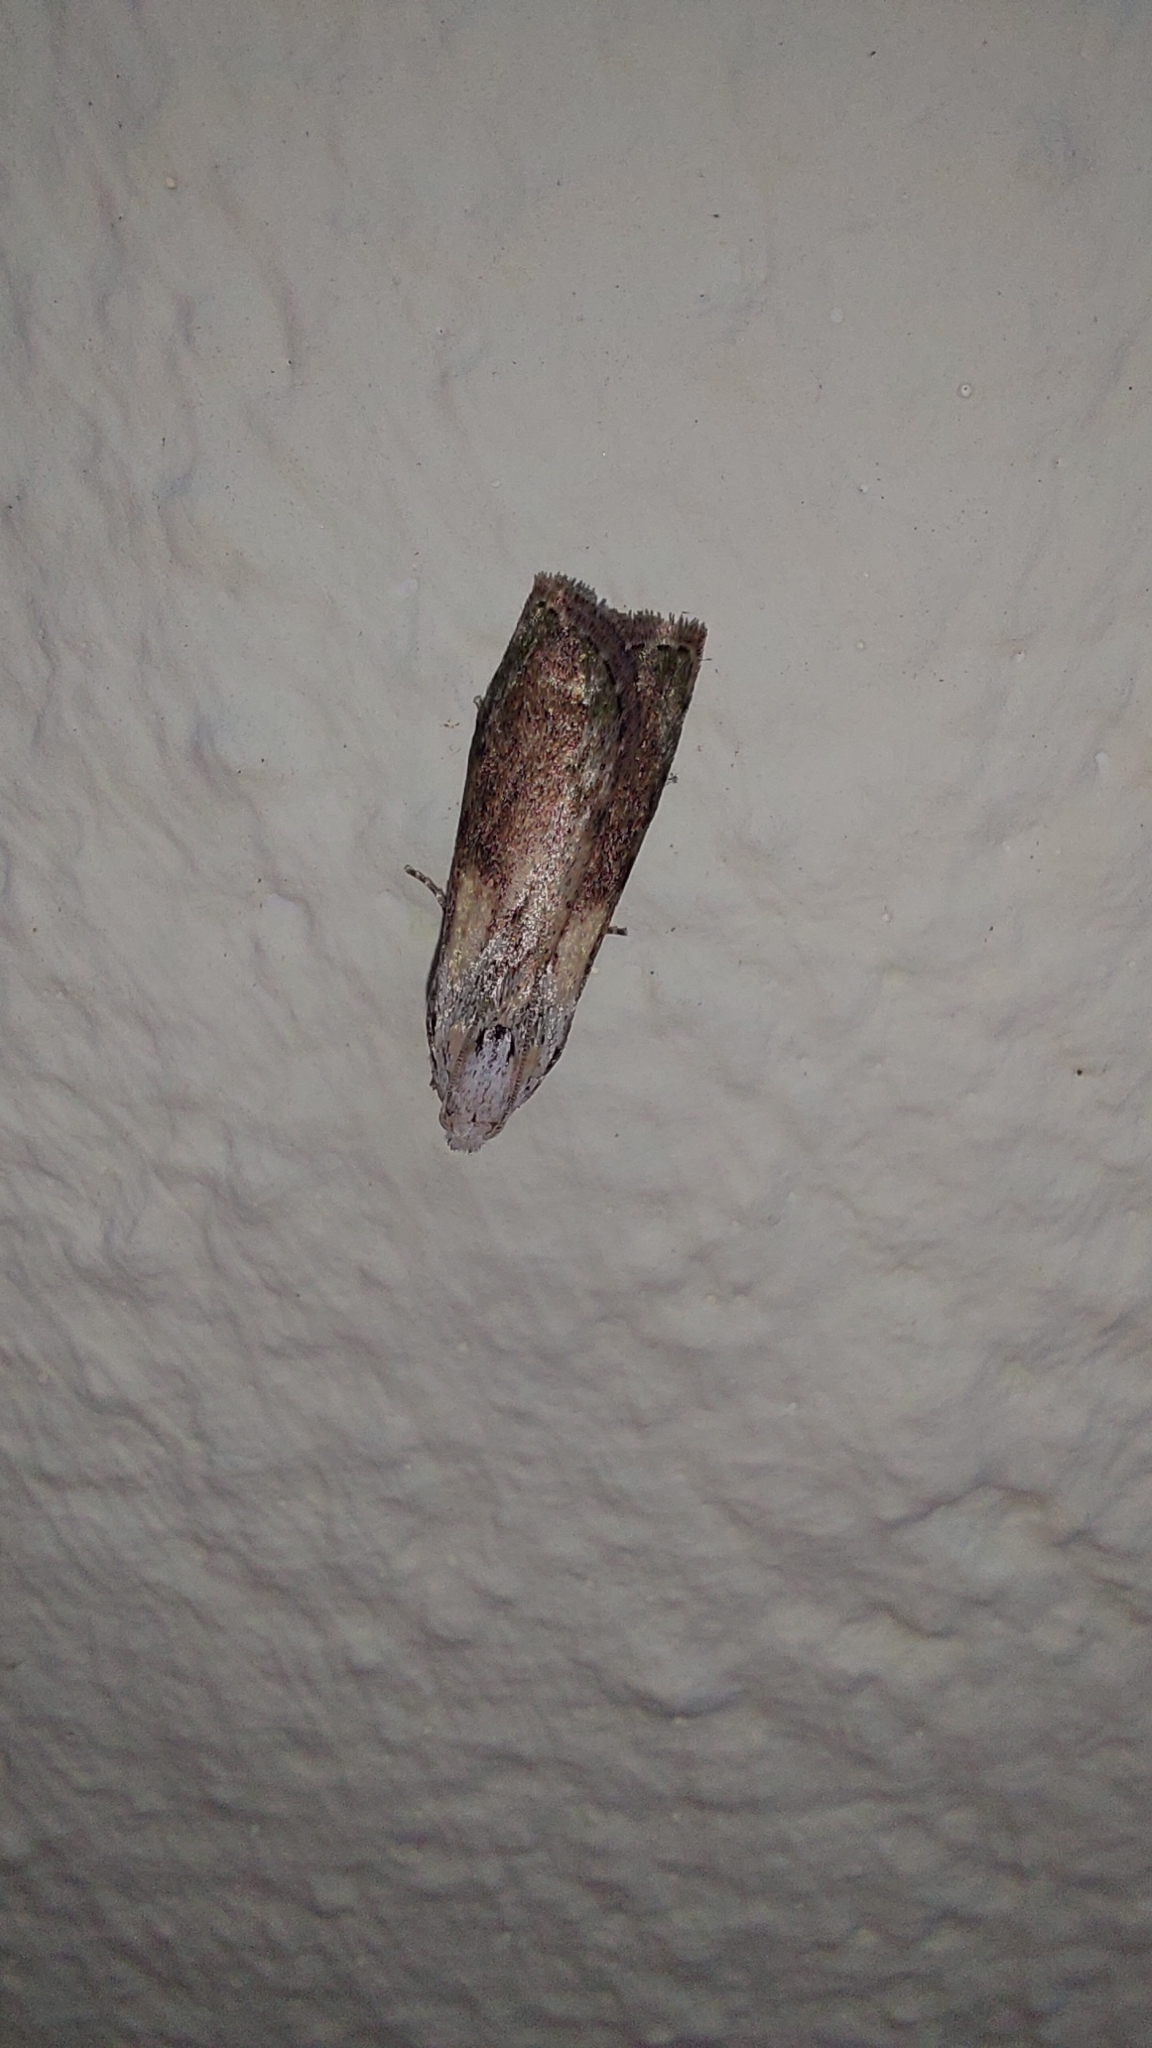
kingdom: Animalia
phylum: Arthropoda
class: Insecta
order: Lepidoptera
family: Pyralidae
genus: Aphomia
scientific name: Aphomia sociella
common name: Bee moth
